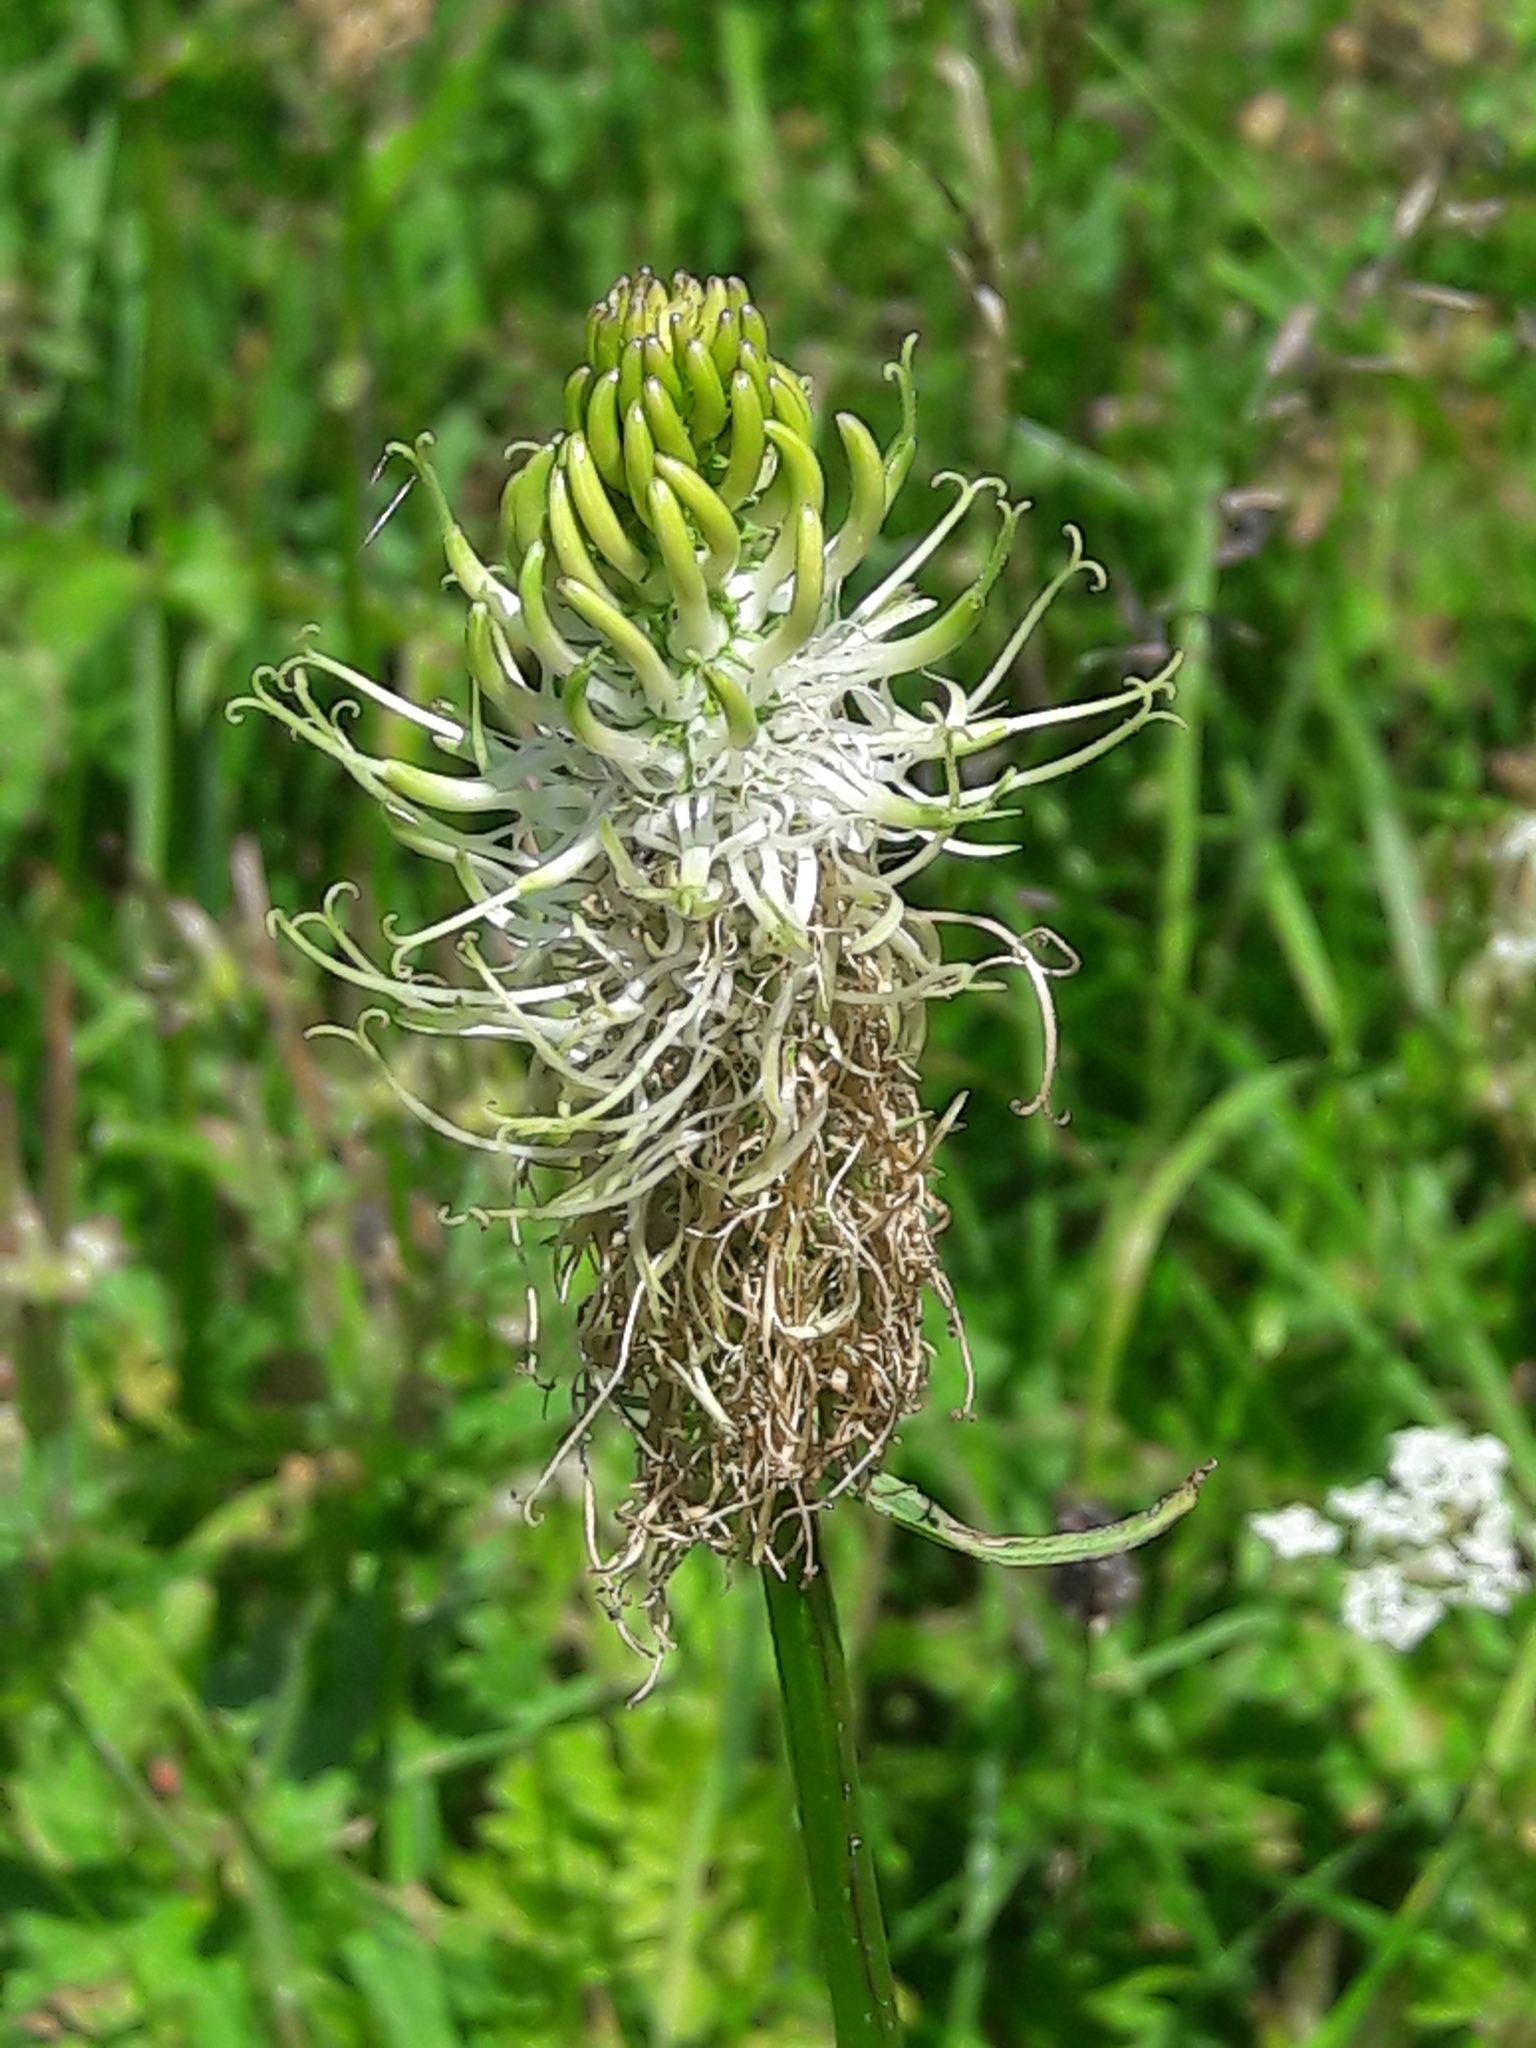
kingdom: Plantae
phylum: Tracheophyta
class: Magnoliopsida
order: Asterales
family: Campanulaceae
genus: Phyteuma
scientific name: Phyteuma spicatum
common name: Spiked rampion
